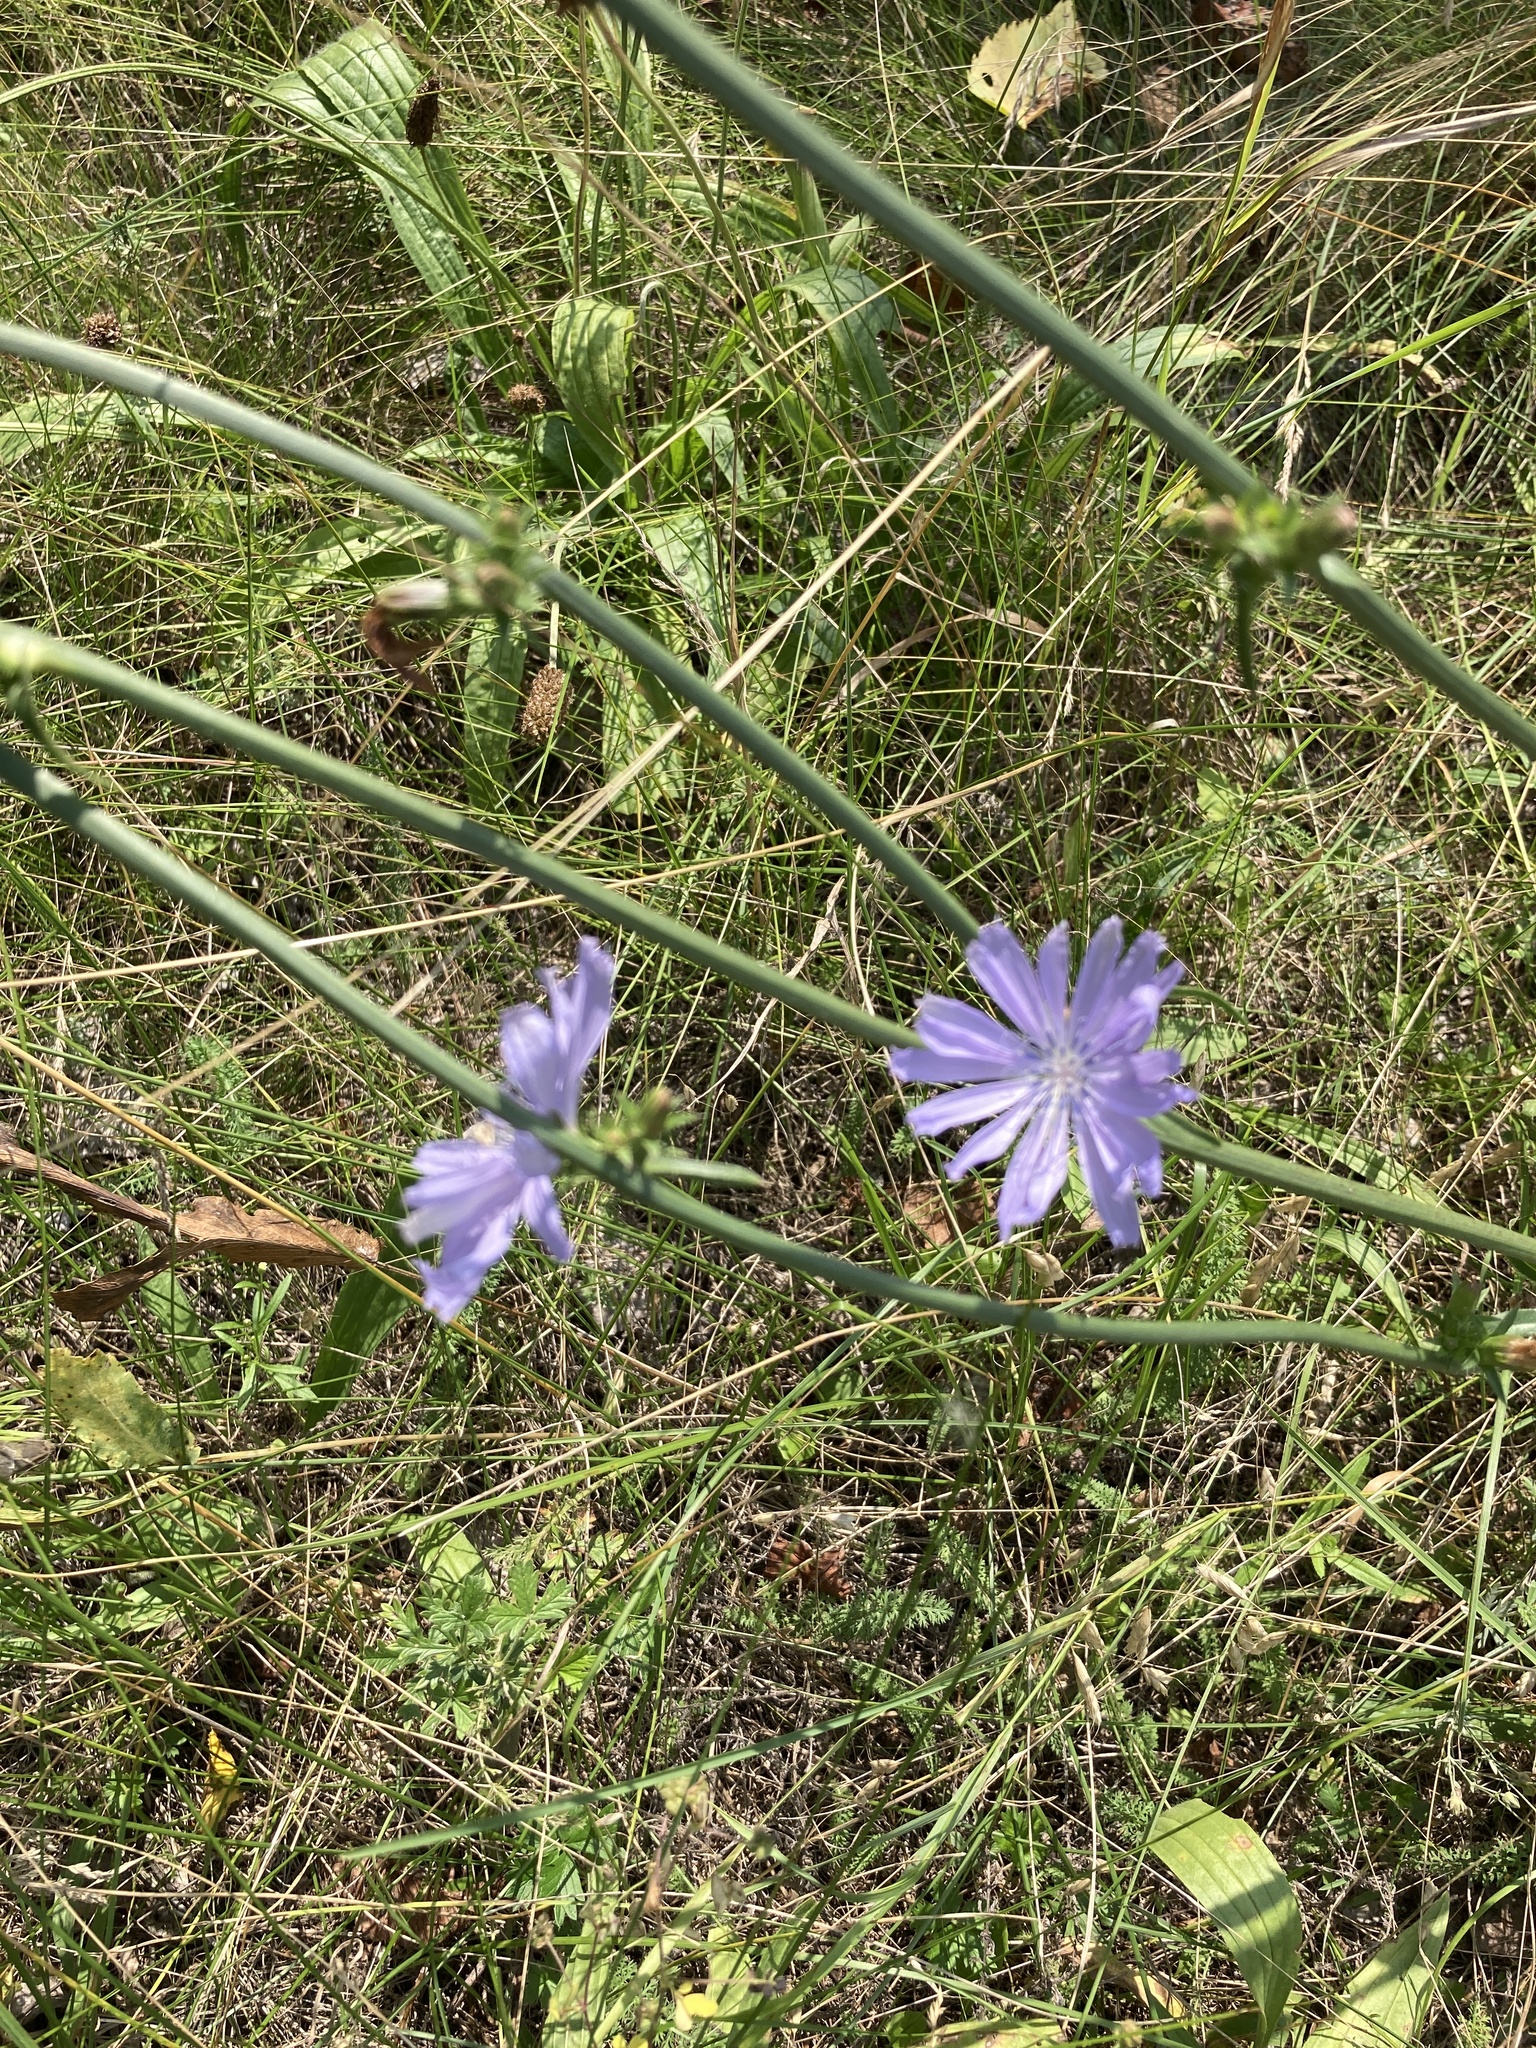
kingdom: Plantae
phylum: Tracheophyta
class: Magnoliopsida
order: Asterales
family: Asteraceae
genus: Cichorium
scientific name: Cichorium intybus
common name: Chicory
